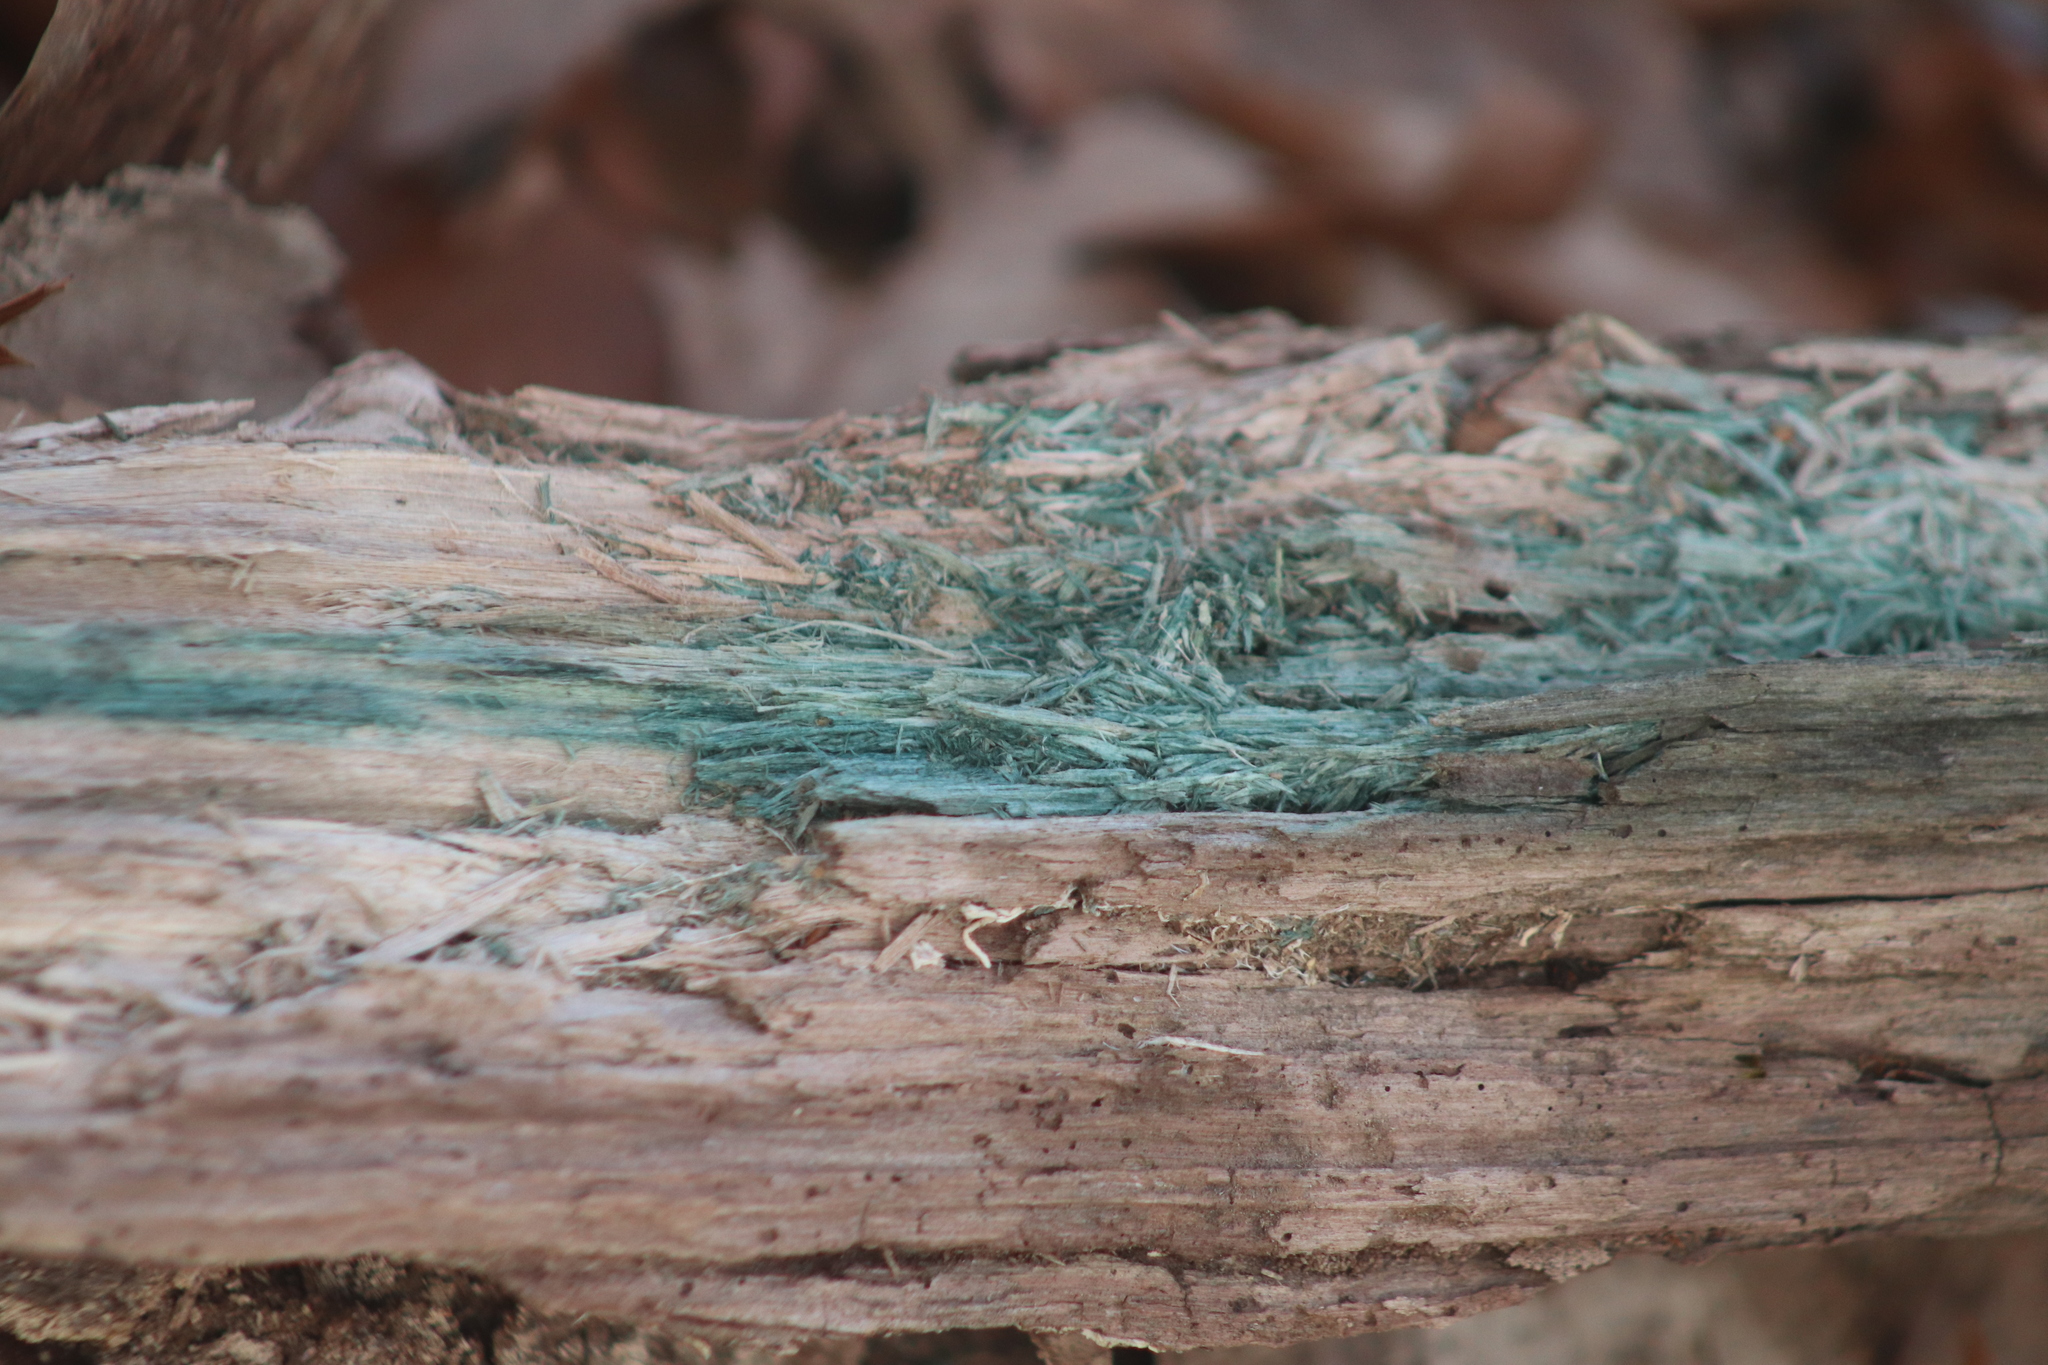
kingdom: Fungi
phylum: Ascomycota
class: Leotiomycetes
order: Helotiales
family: Chlorociboriaceae
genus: Chlorociboria
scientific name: Chlorociboria
